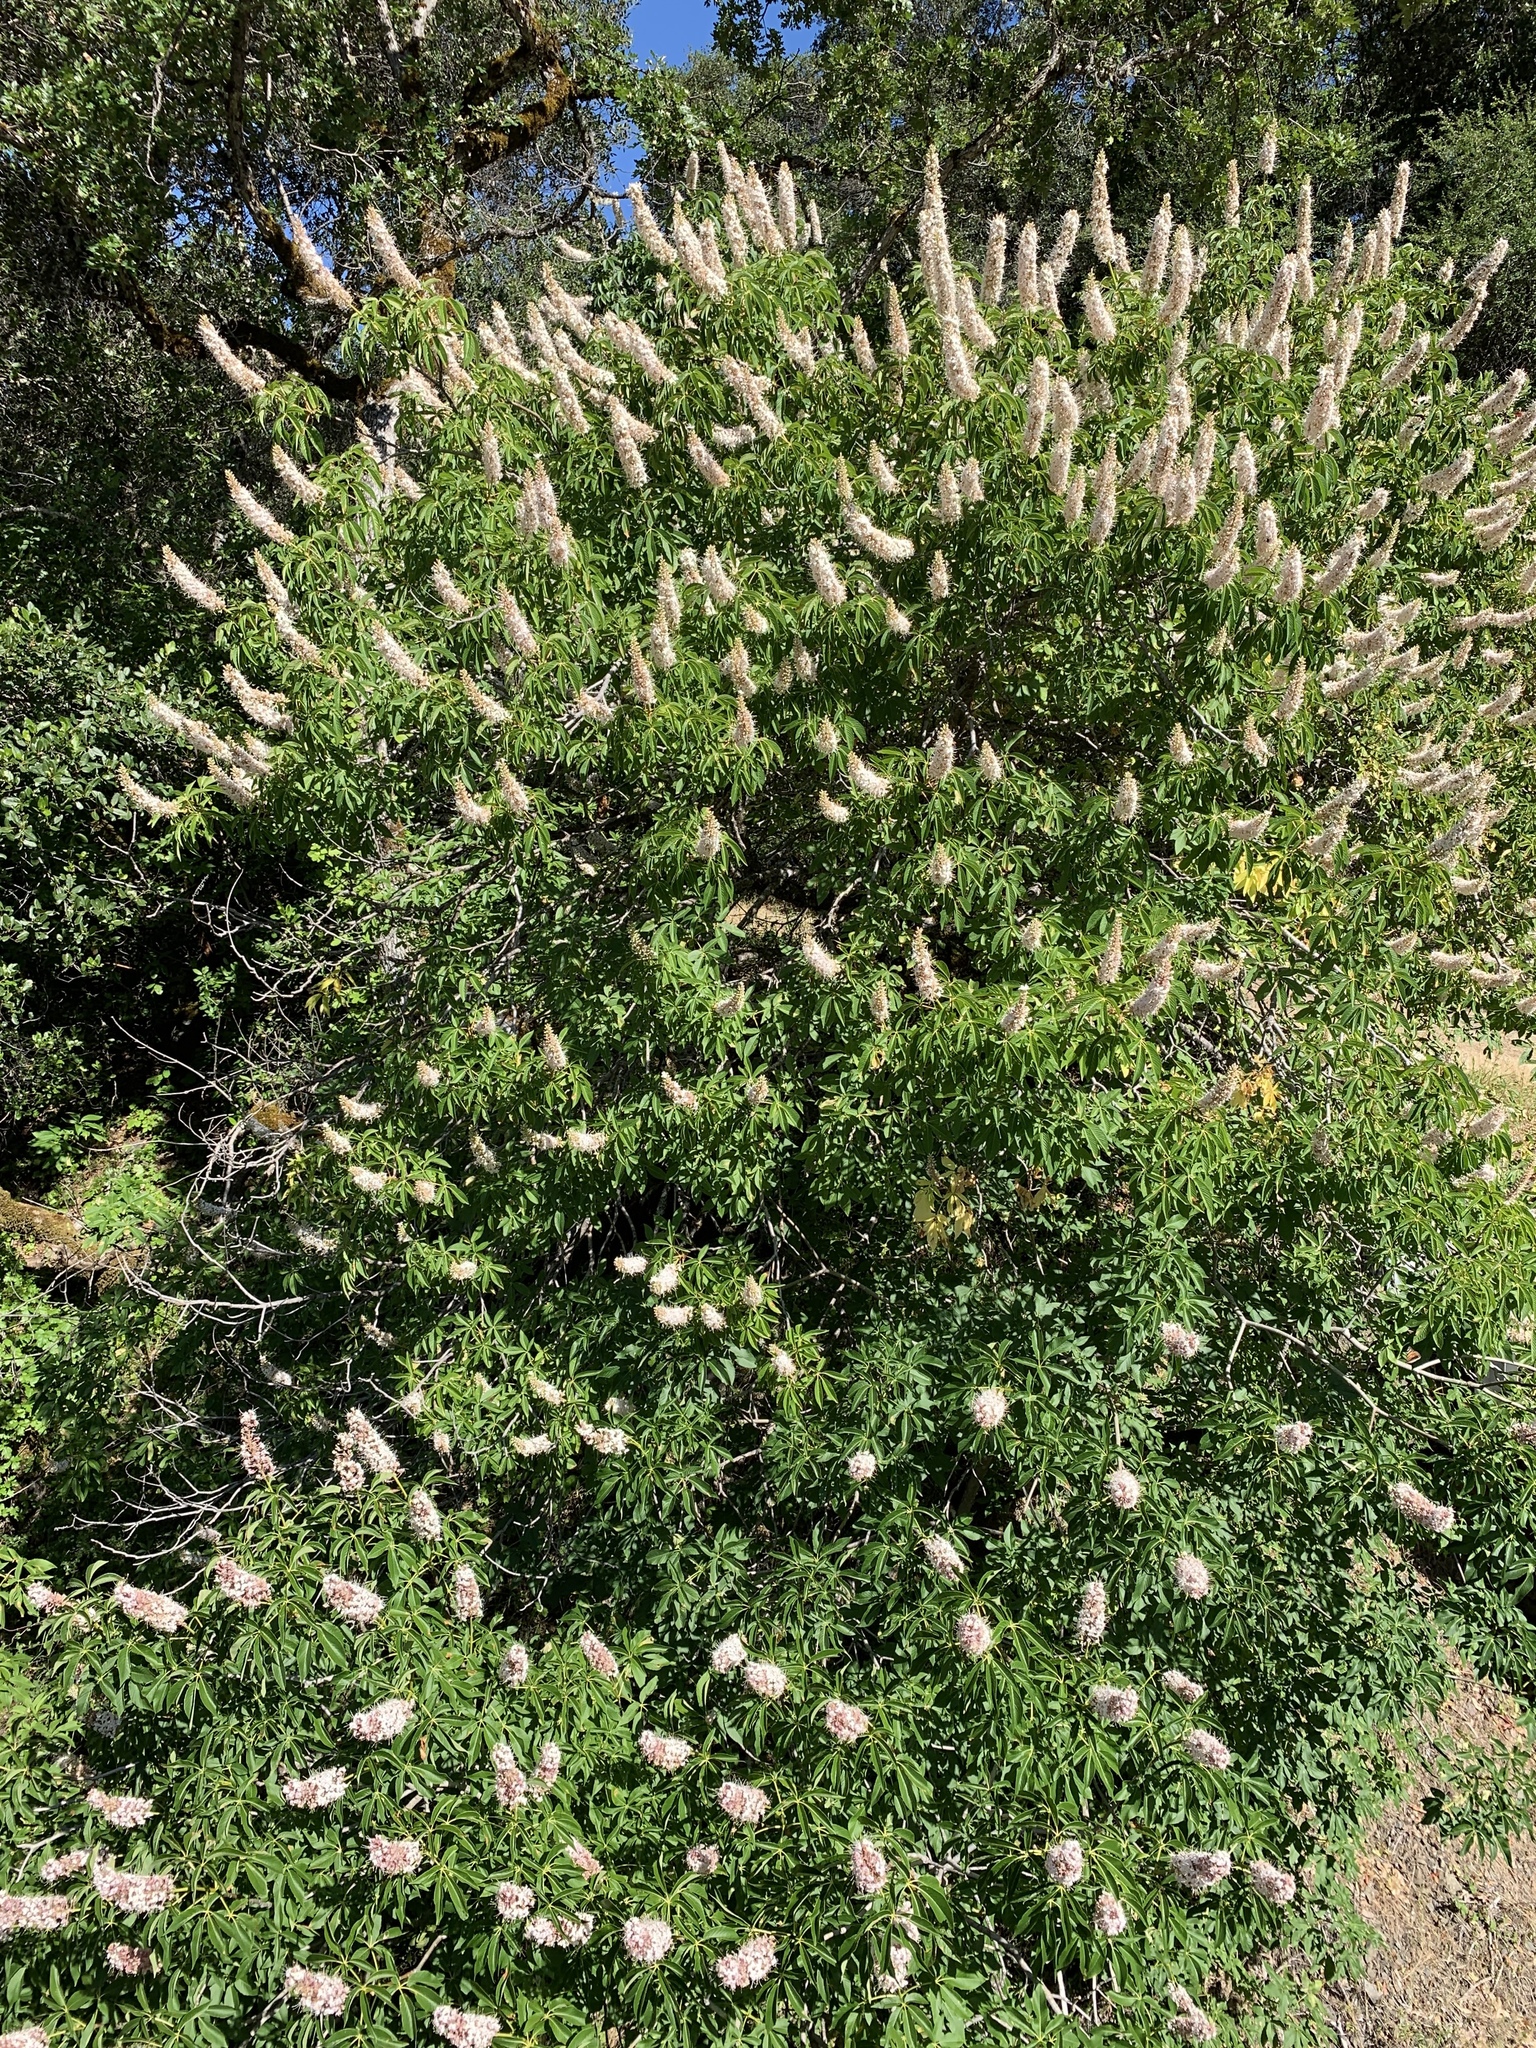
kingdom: Plantae
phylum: Tracheophyta
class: Magnoliopsida
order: Sapindales
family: Sapindaceae
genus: Aesculus
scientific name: Aesculus californica
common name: California buckeye
